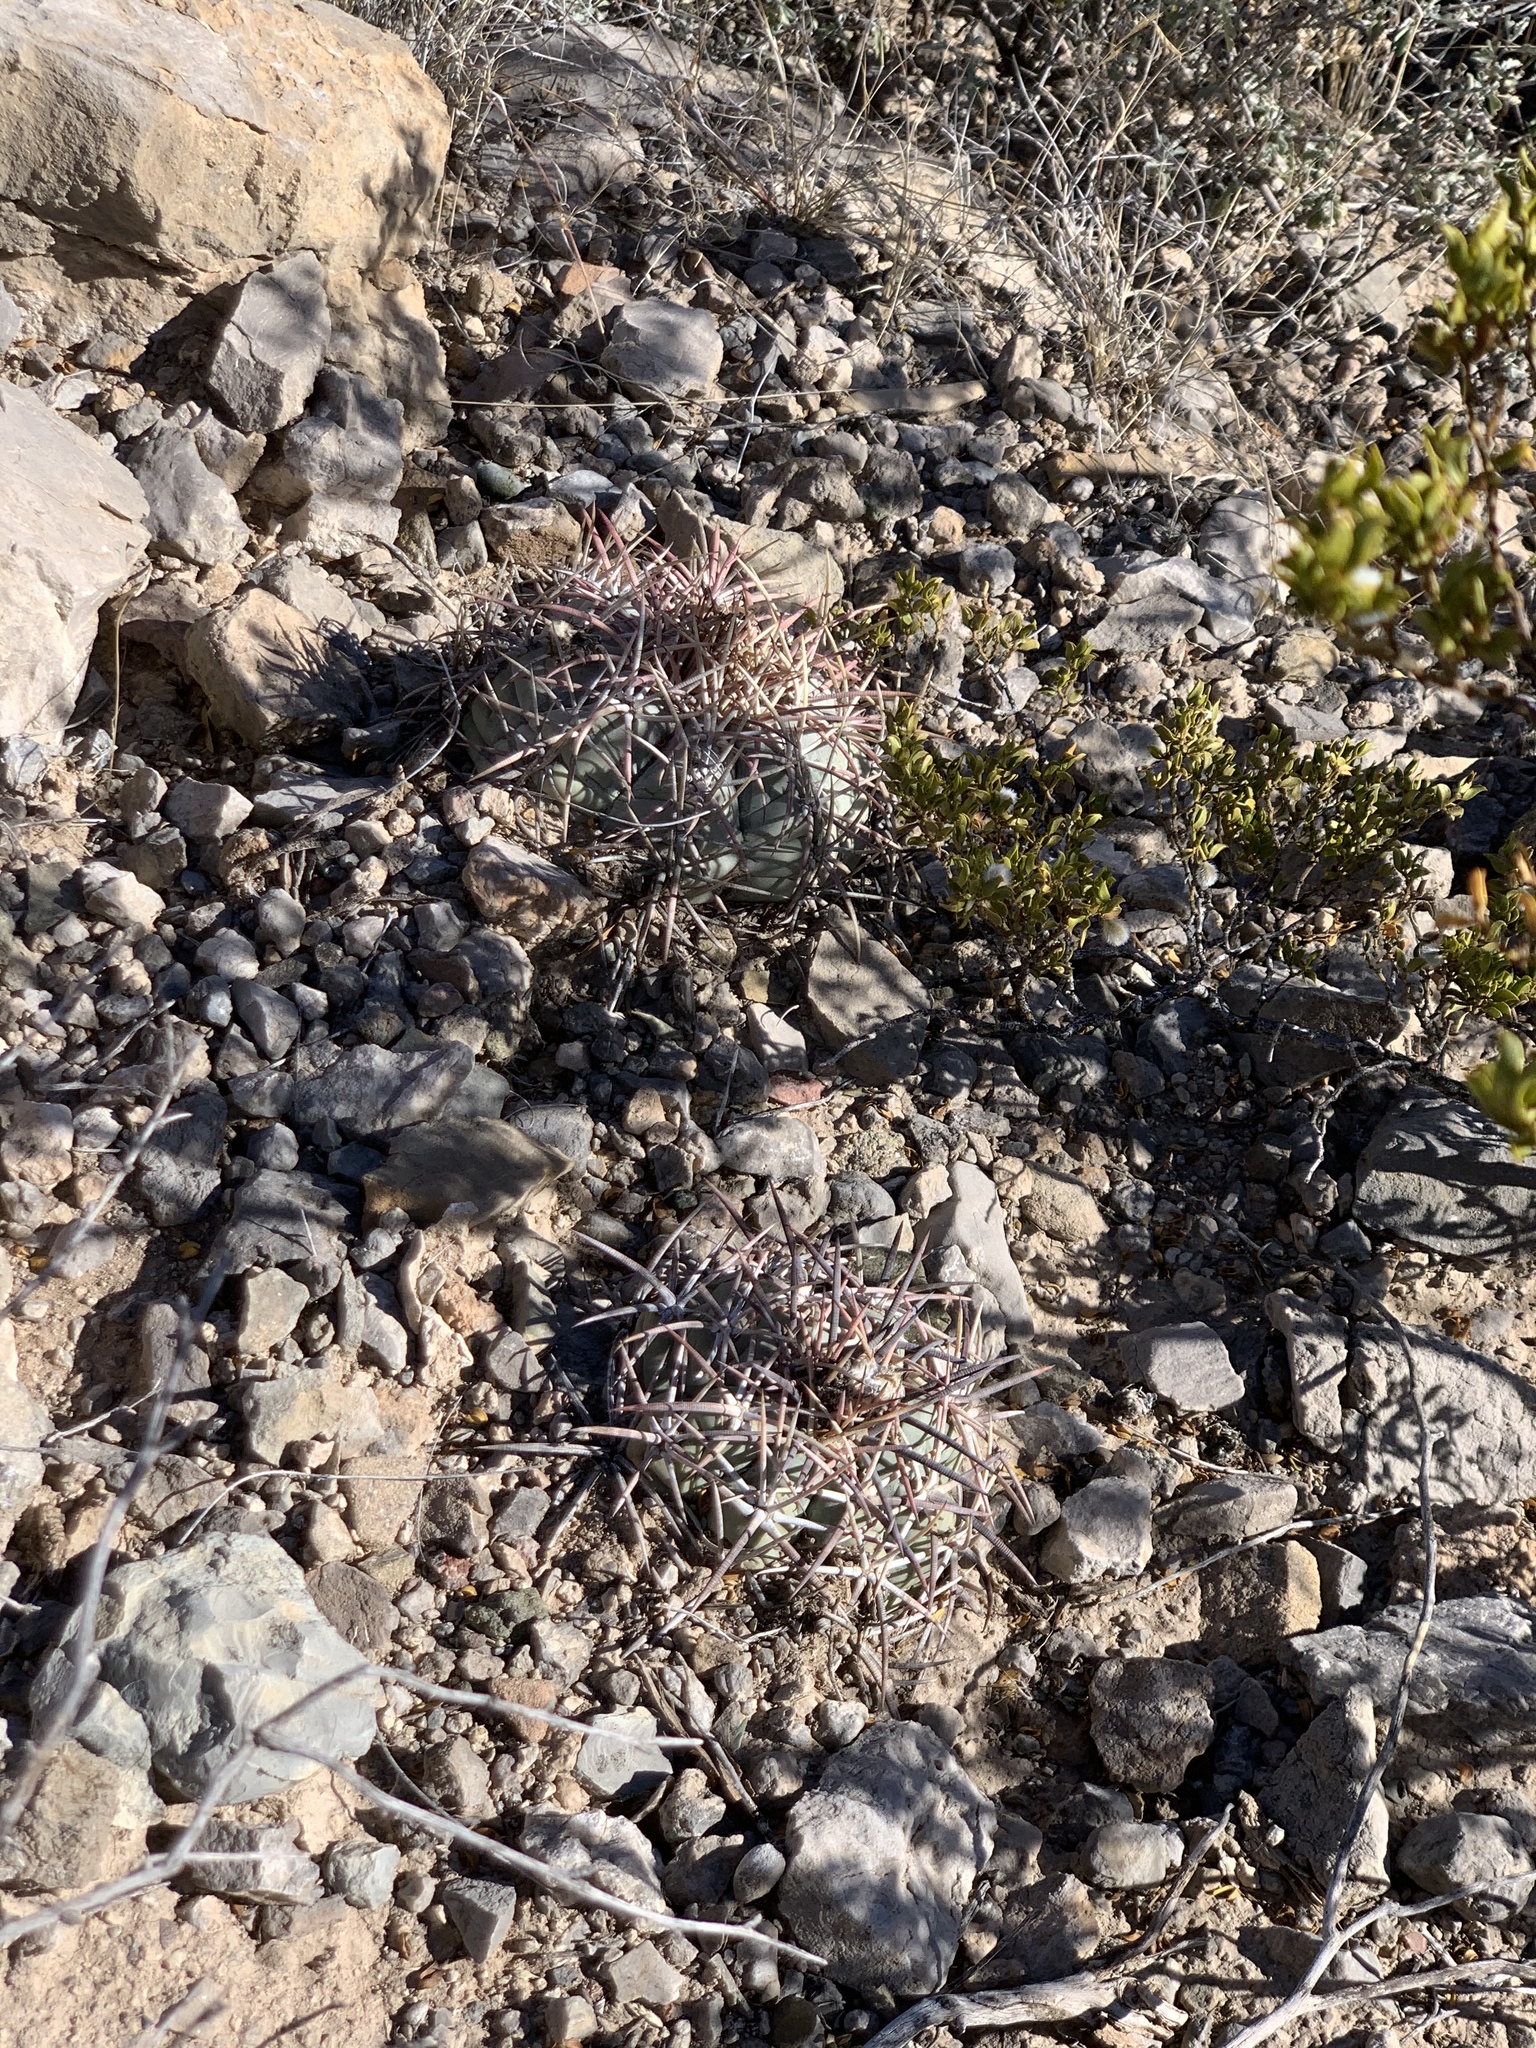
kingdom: Plantae
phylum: Tracheophyta
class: Magnoliopsida
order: Caryophyllales
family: Cactaceae
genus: Echinocactus
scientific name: Echinocactus horizonthalonius
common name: Devilshead
